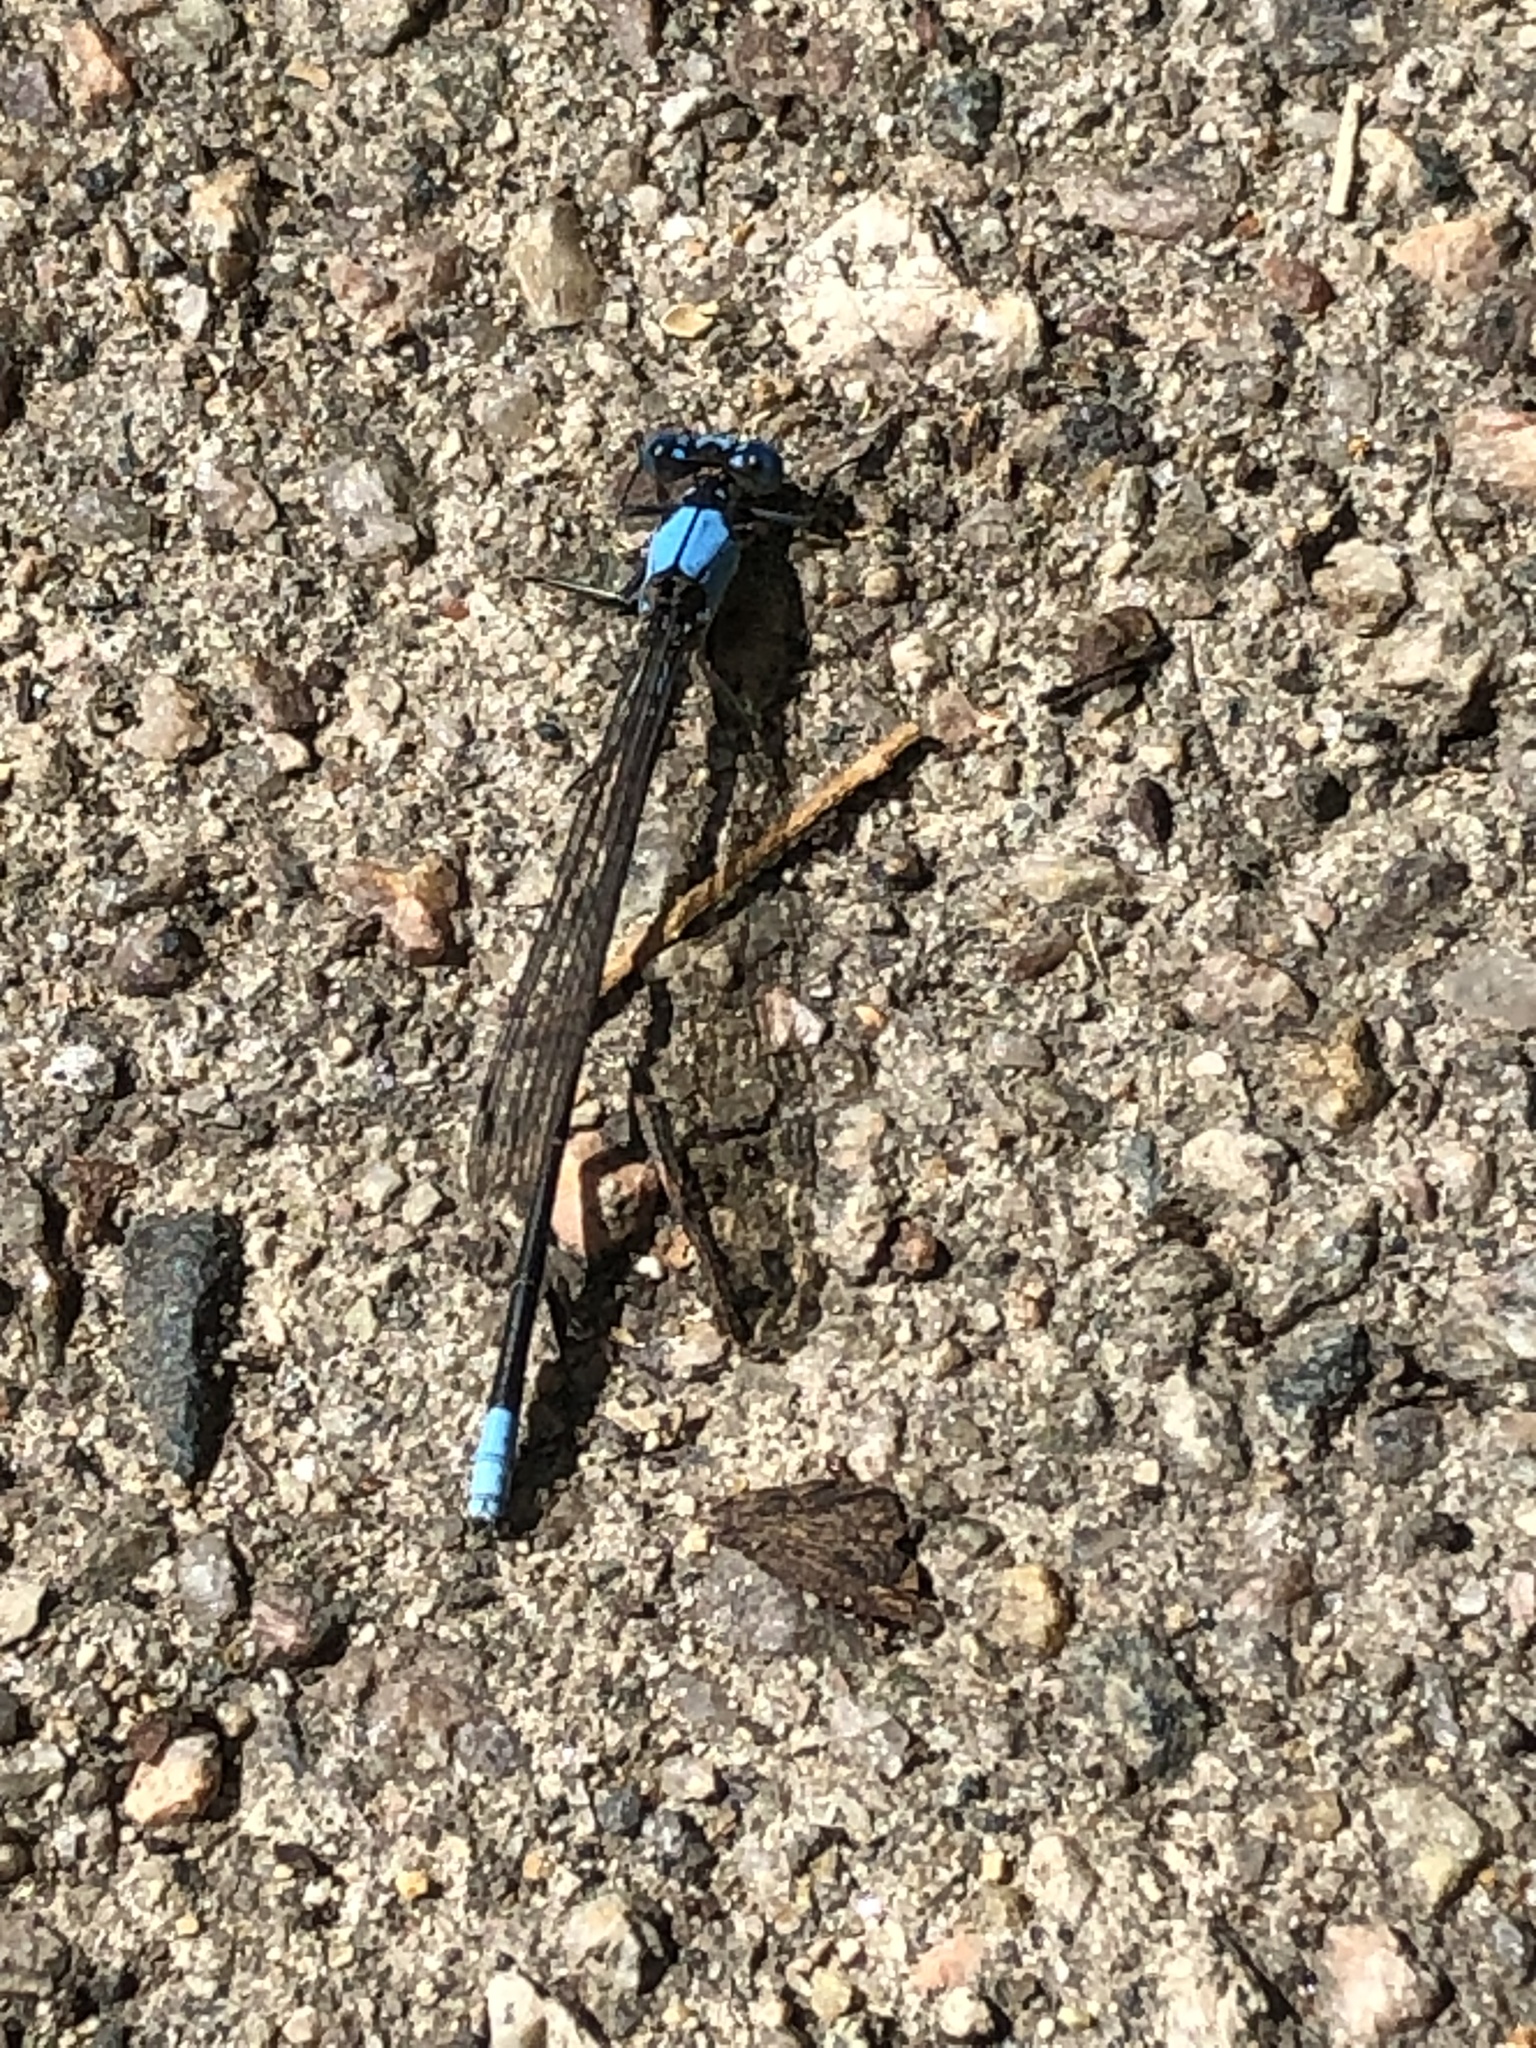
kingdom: Animalia
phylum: Arthropoda
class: Insecta
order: Odonata
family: Coenagrionidae
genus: Argia
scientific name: Argia apicalis
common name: Blue-fronted dancer
